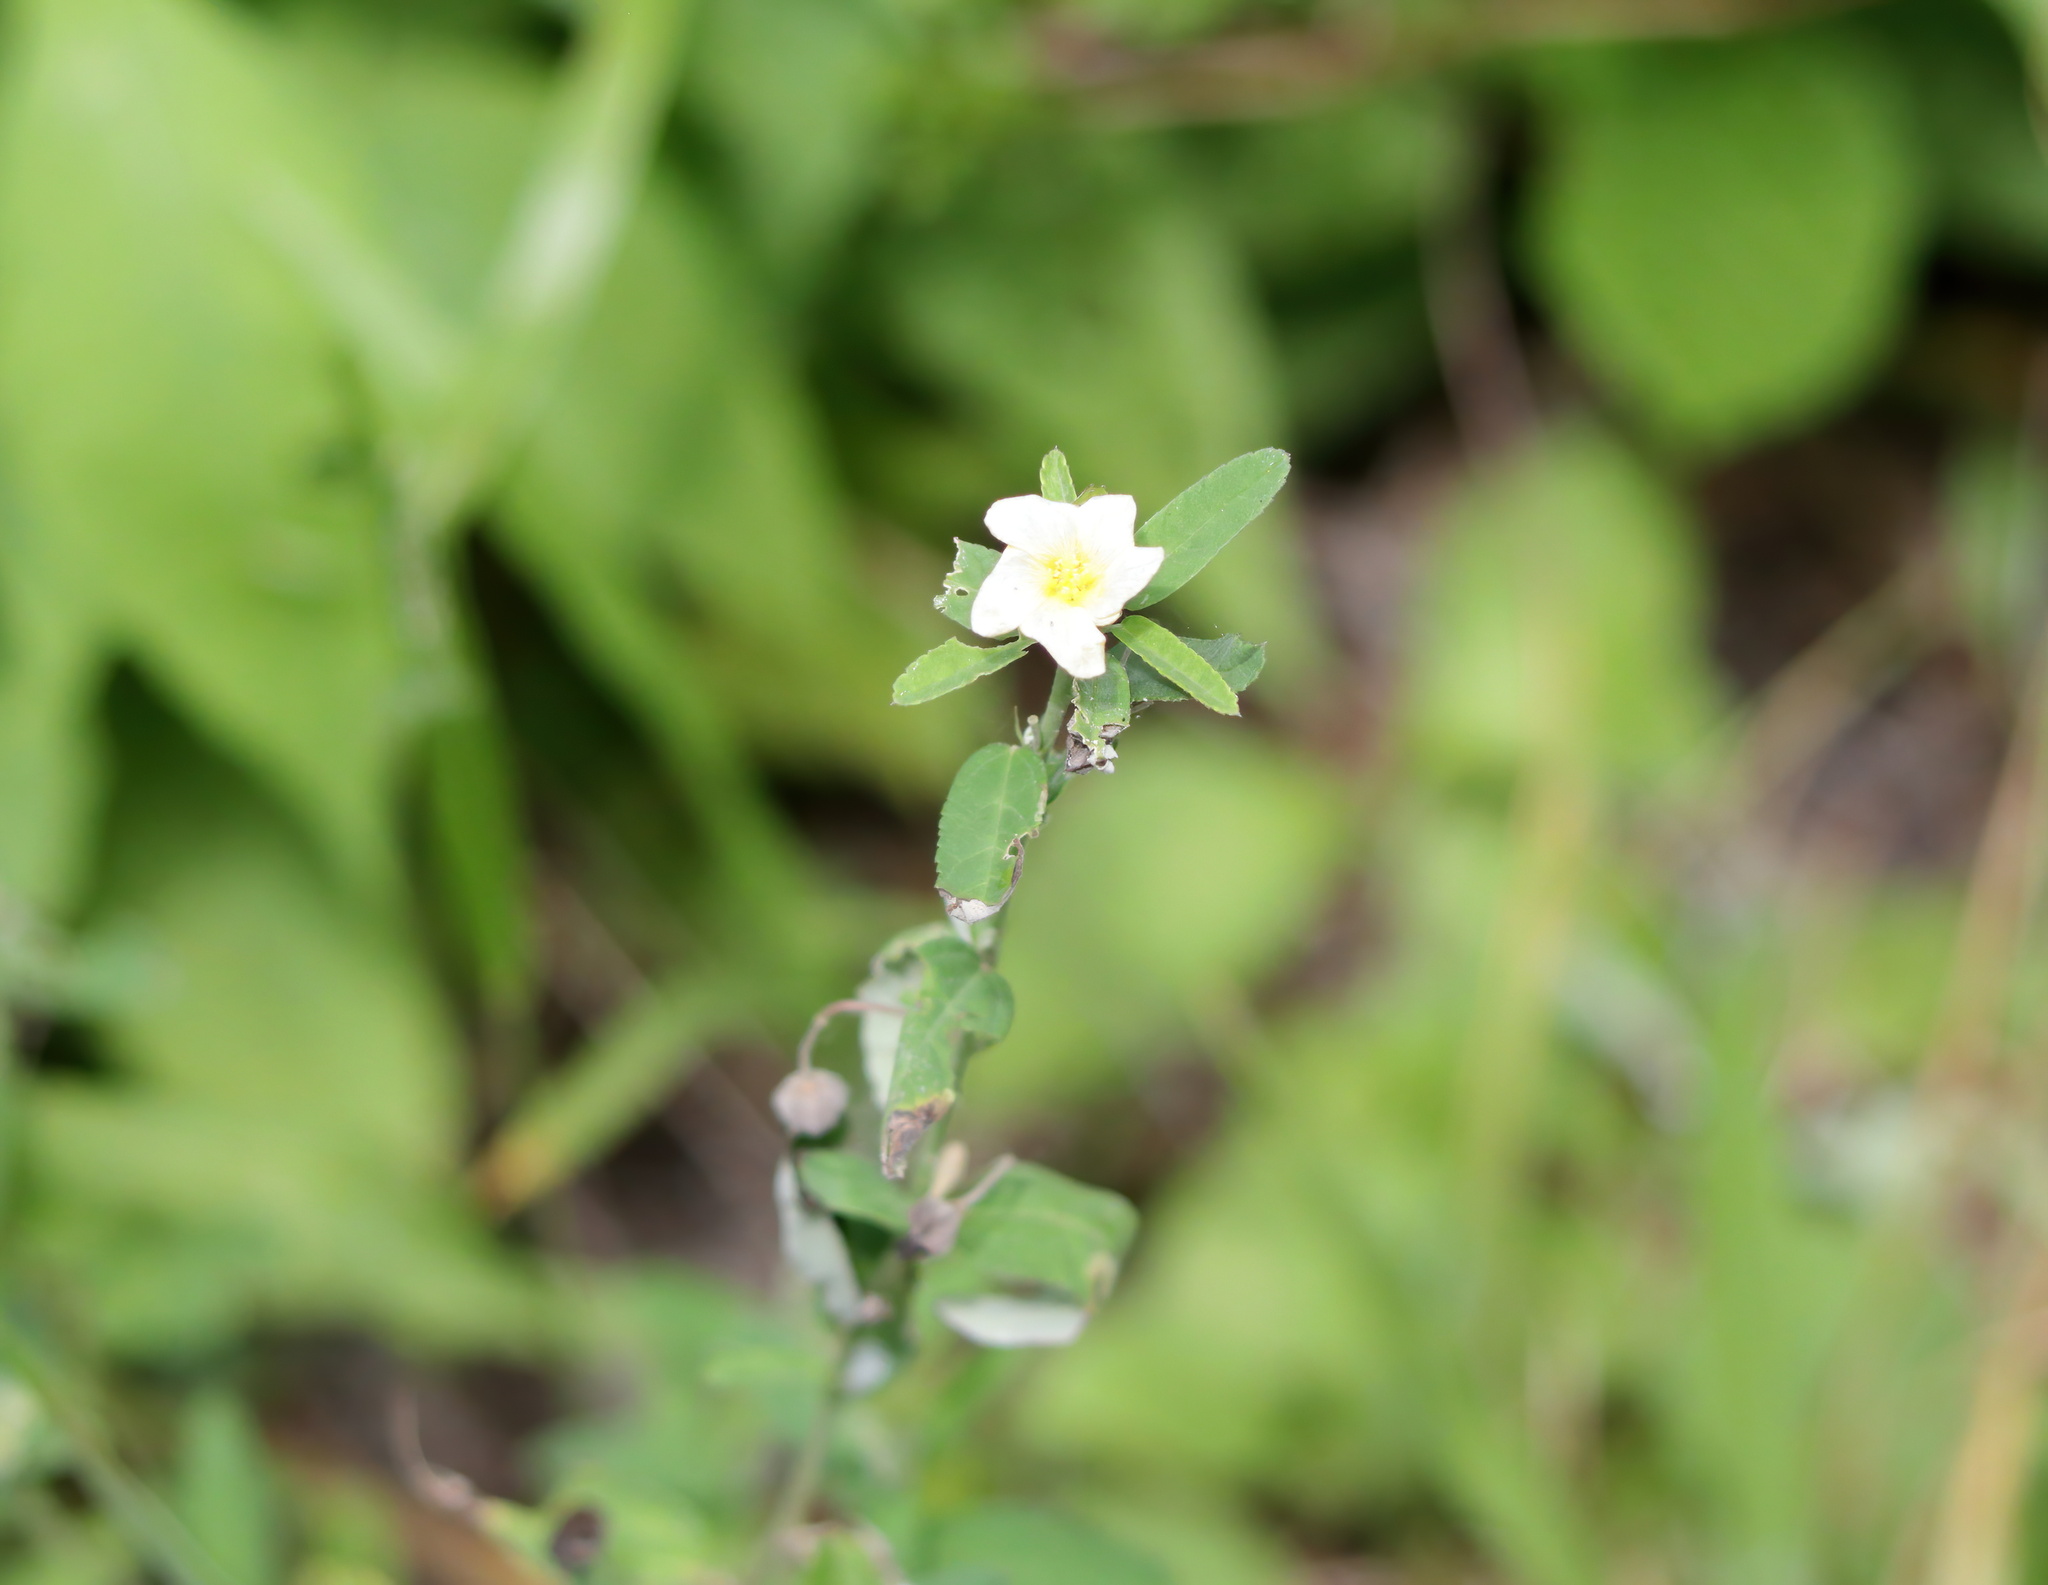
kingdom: Plantae
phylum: Tracheophyta
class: Magnoliopsida
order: Malvales
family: Malvaceae
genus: Sida
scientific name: Sida rhombifolia
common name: Queensland-hemp
